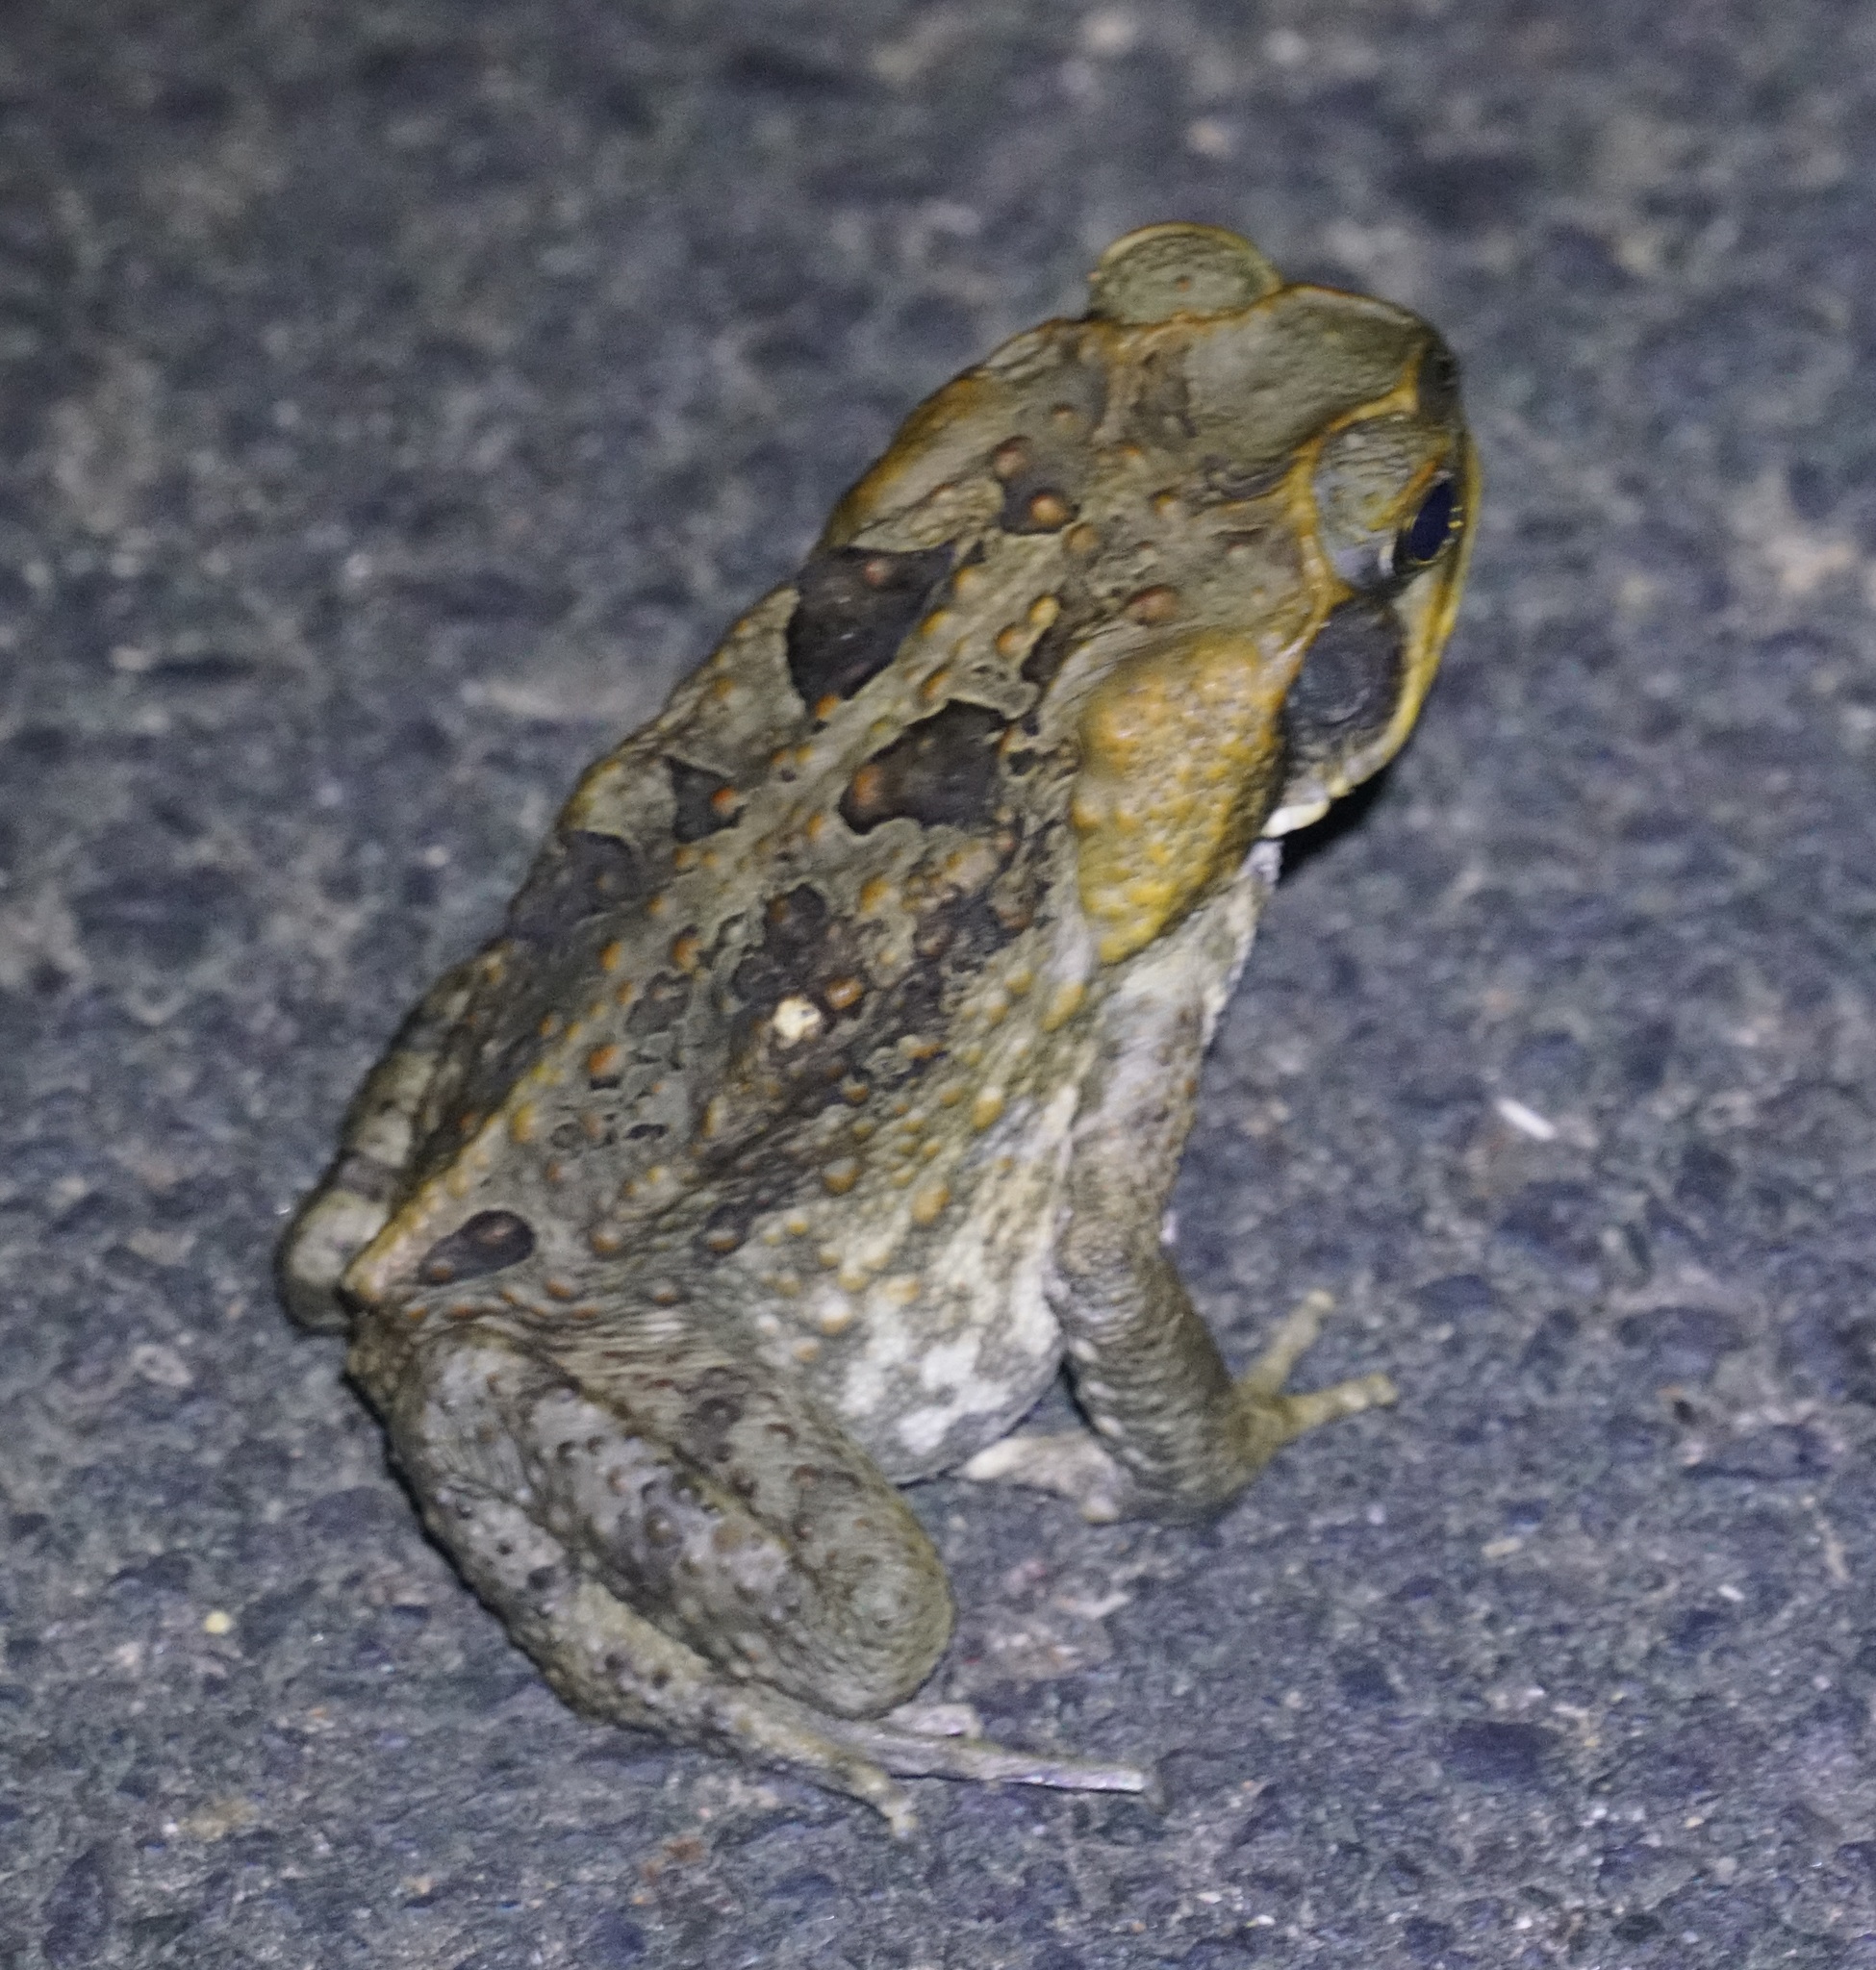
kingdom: Animalia
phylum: Chordata
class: Amphibia
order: Anura
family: Bufonidae
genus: Rhinella
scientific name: Rhinella marina
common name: Cane toad
